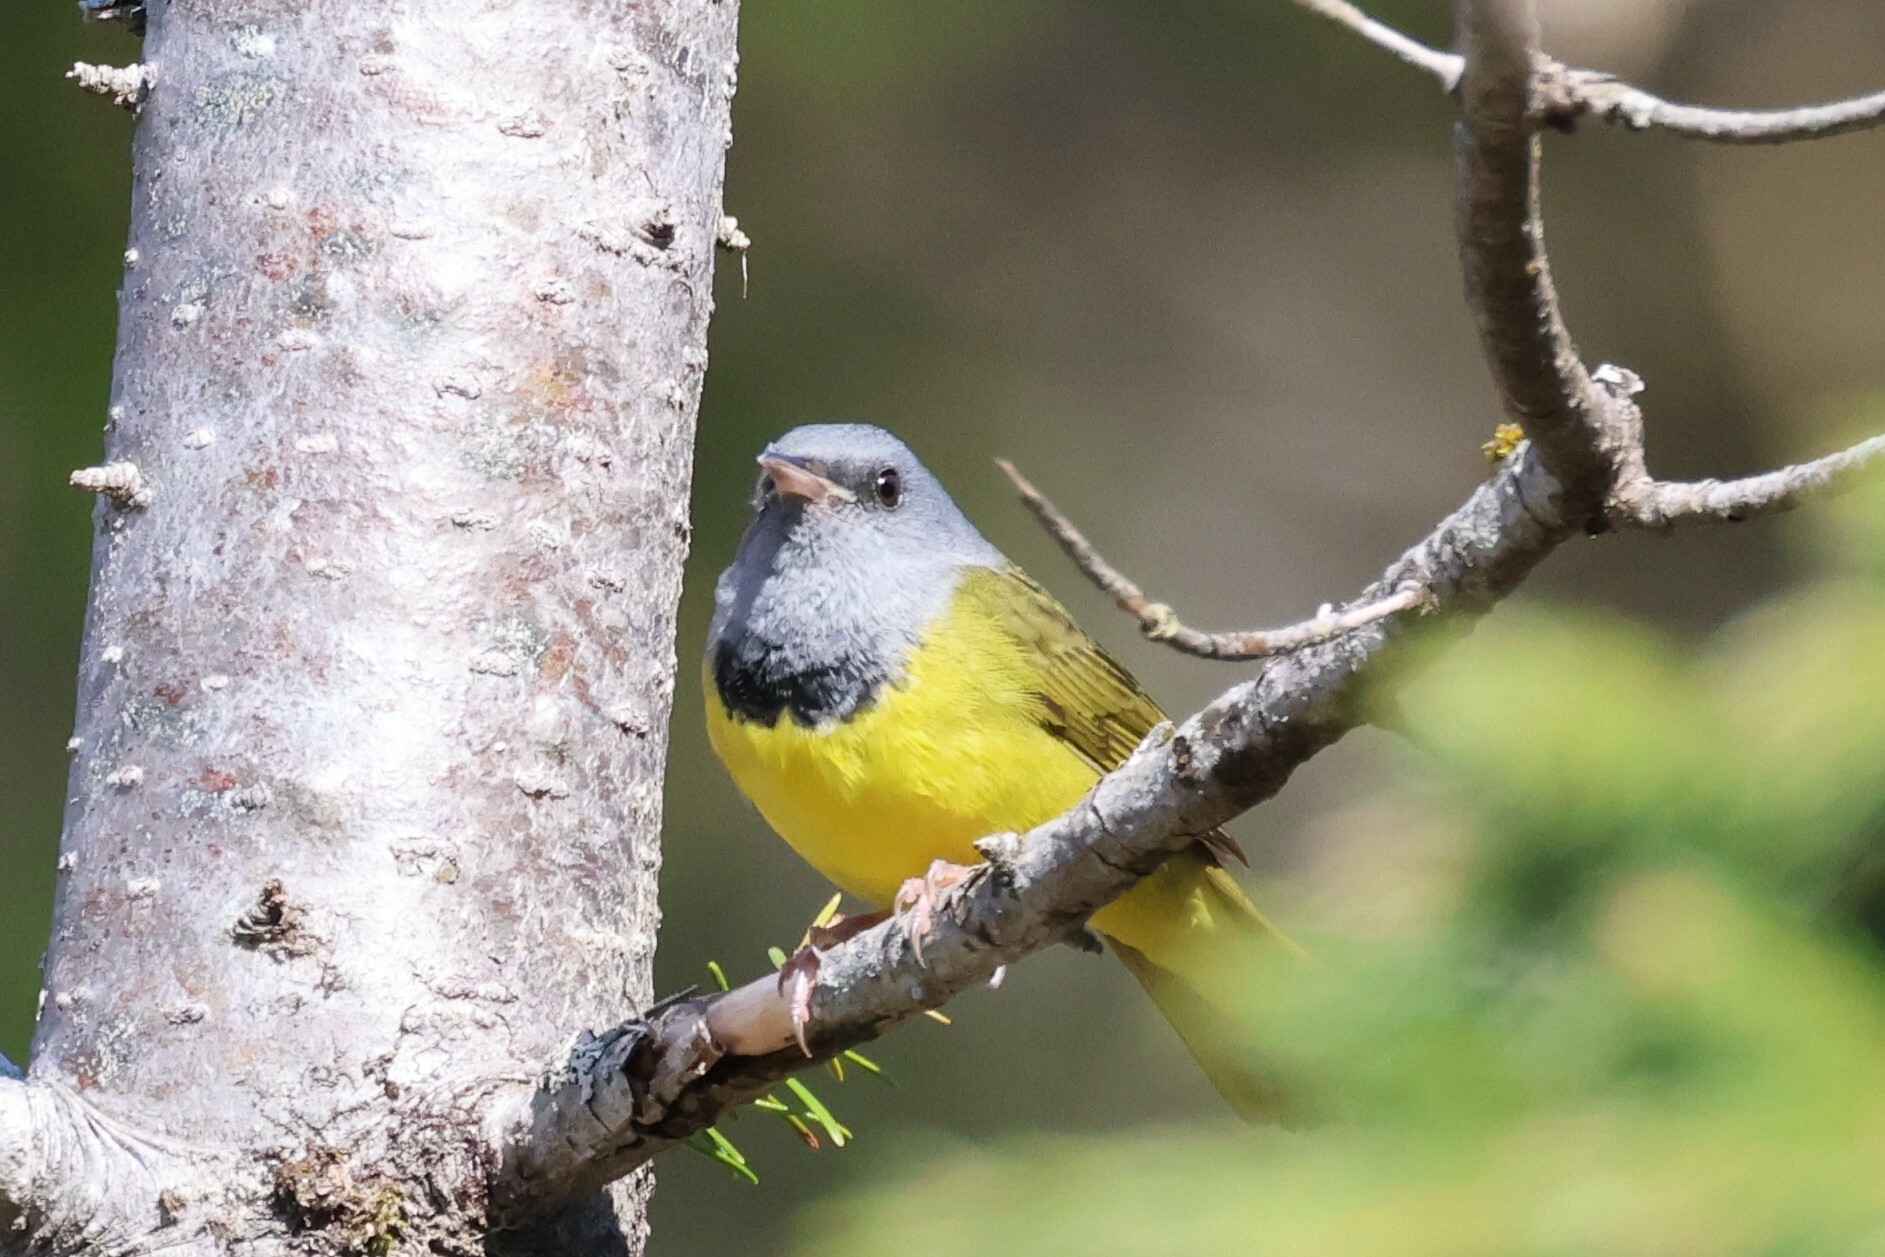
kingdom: Animalia
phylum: Chordata
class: Aves
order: Passeriformes
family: Parulidae
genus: Geothlypis
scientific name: Geothlypis philadelphia
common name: Mourning warbler
